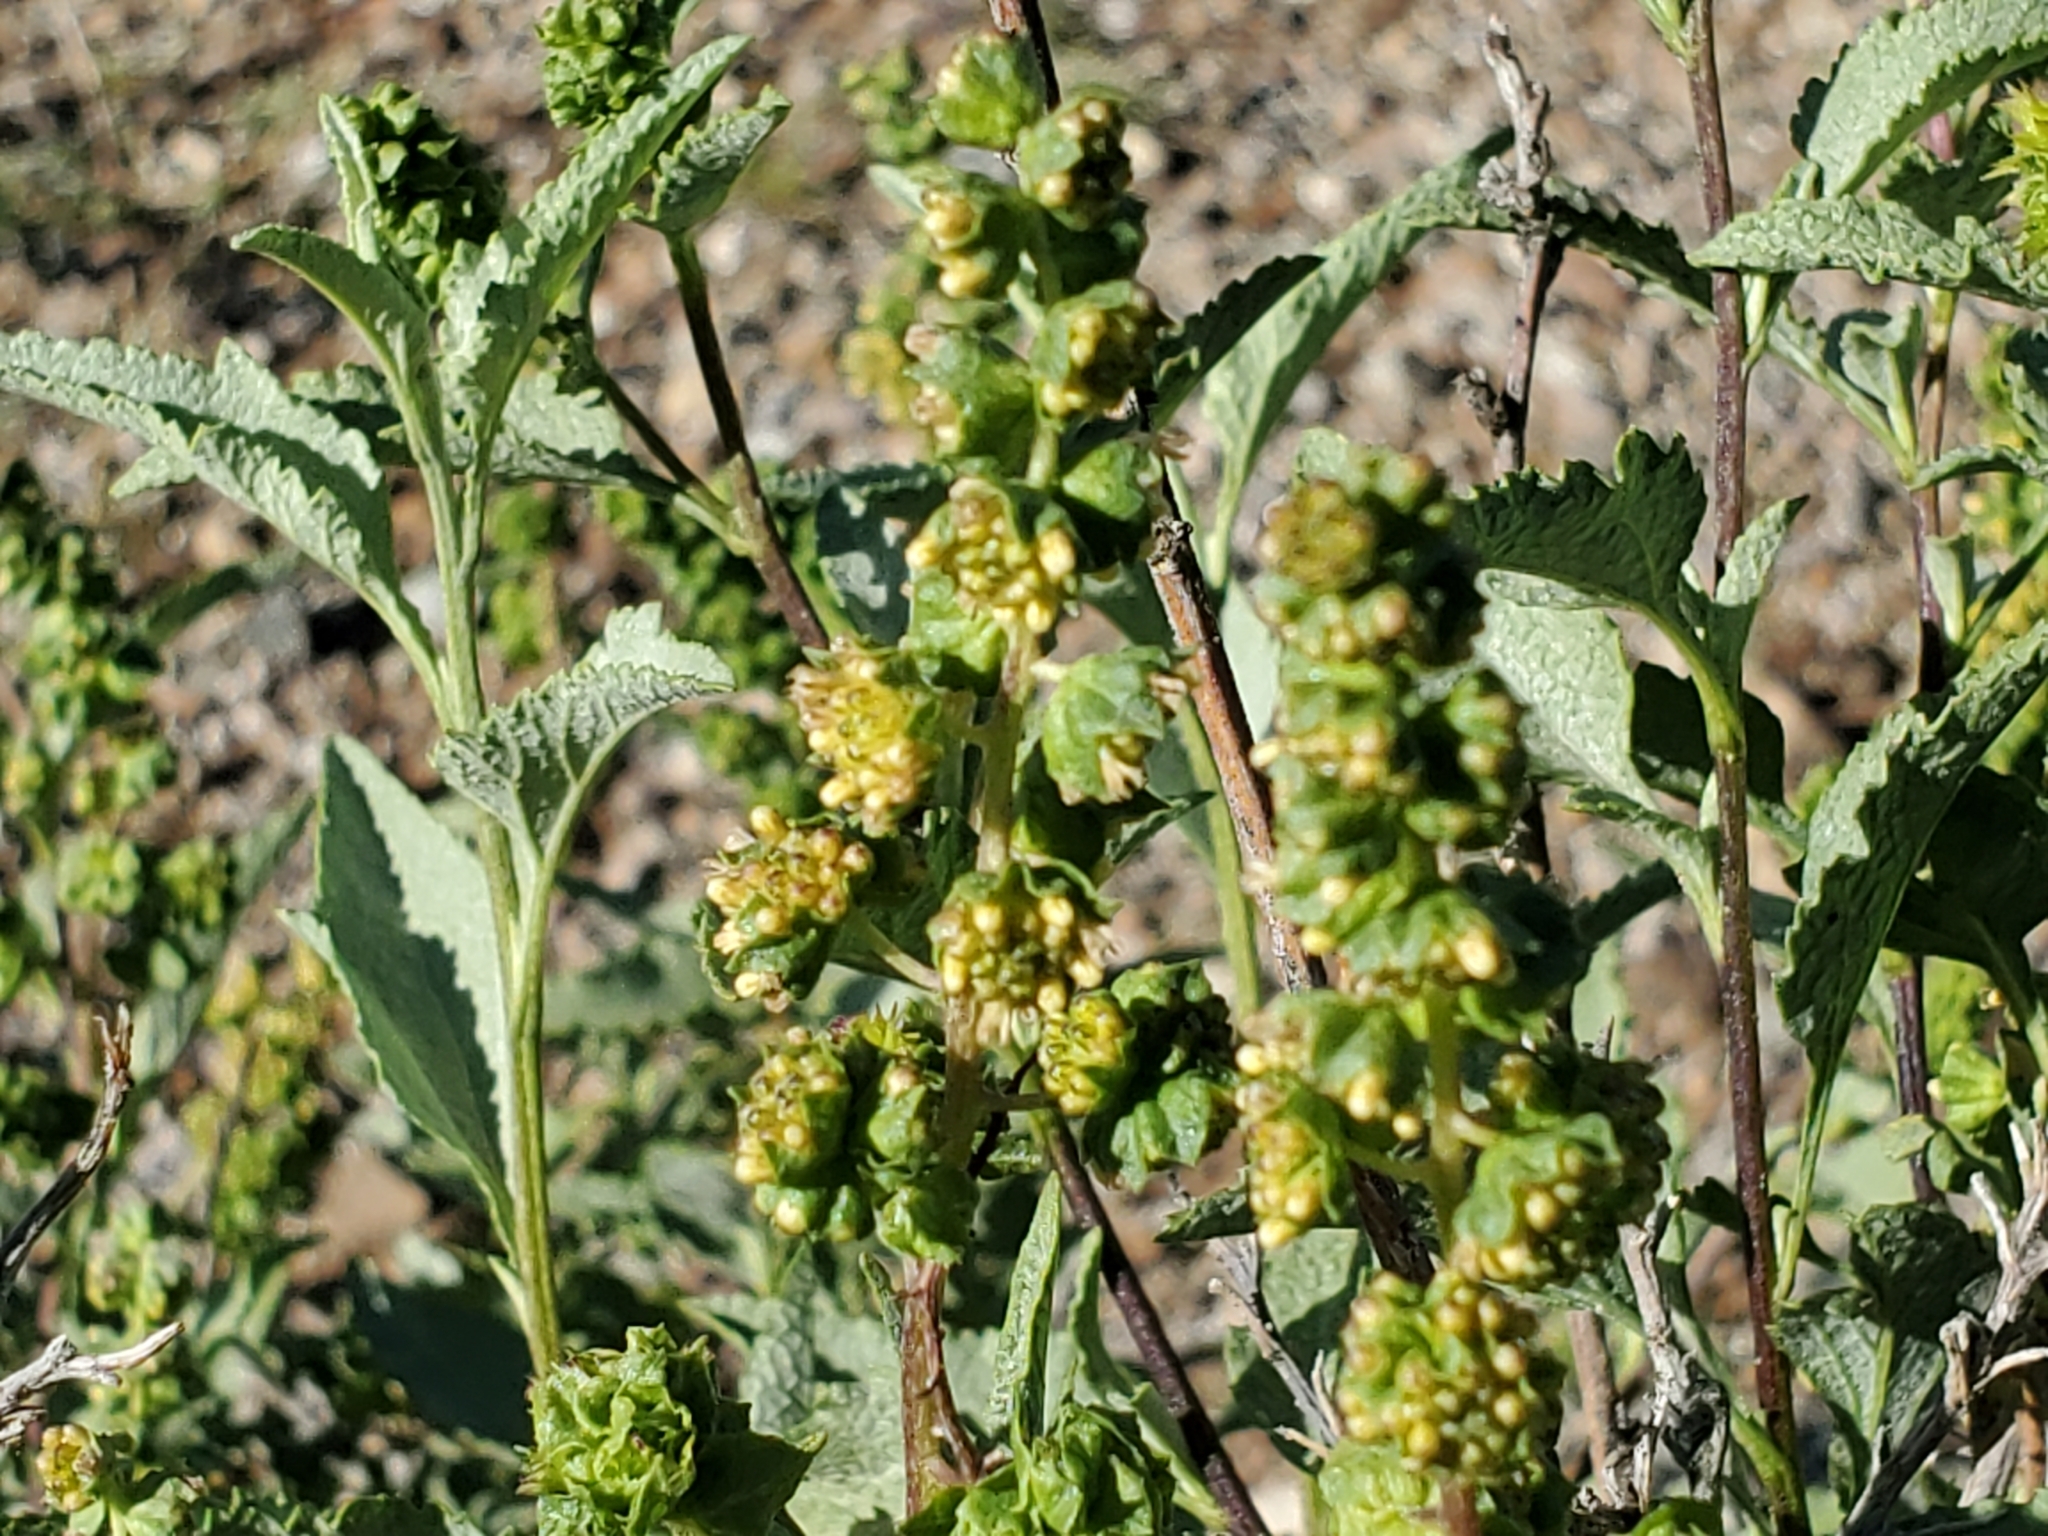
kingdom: Plantae
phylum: Tracheophyta
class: Magnoliopsida
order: Asterales
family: Asteraceae
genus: Ambrosia
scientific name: Ambrosia deltoidea
